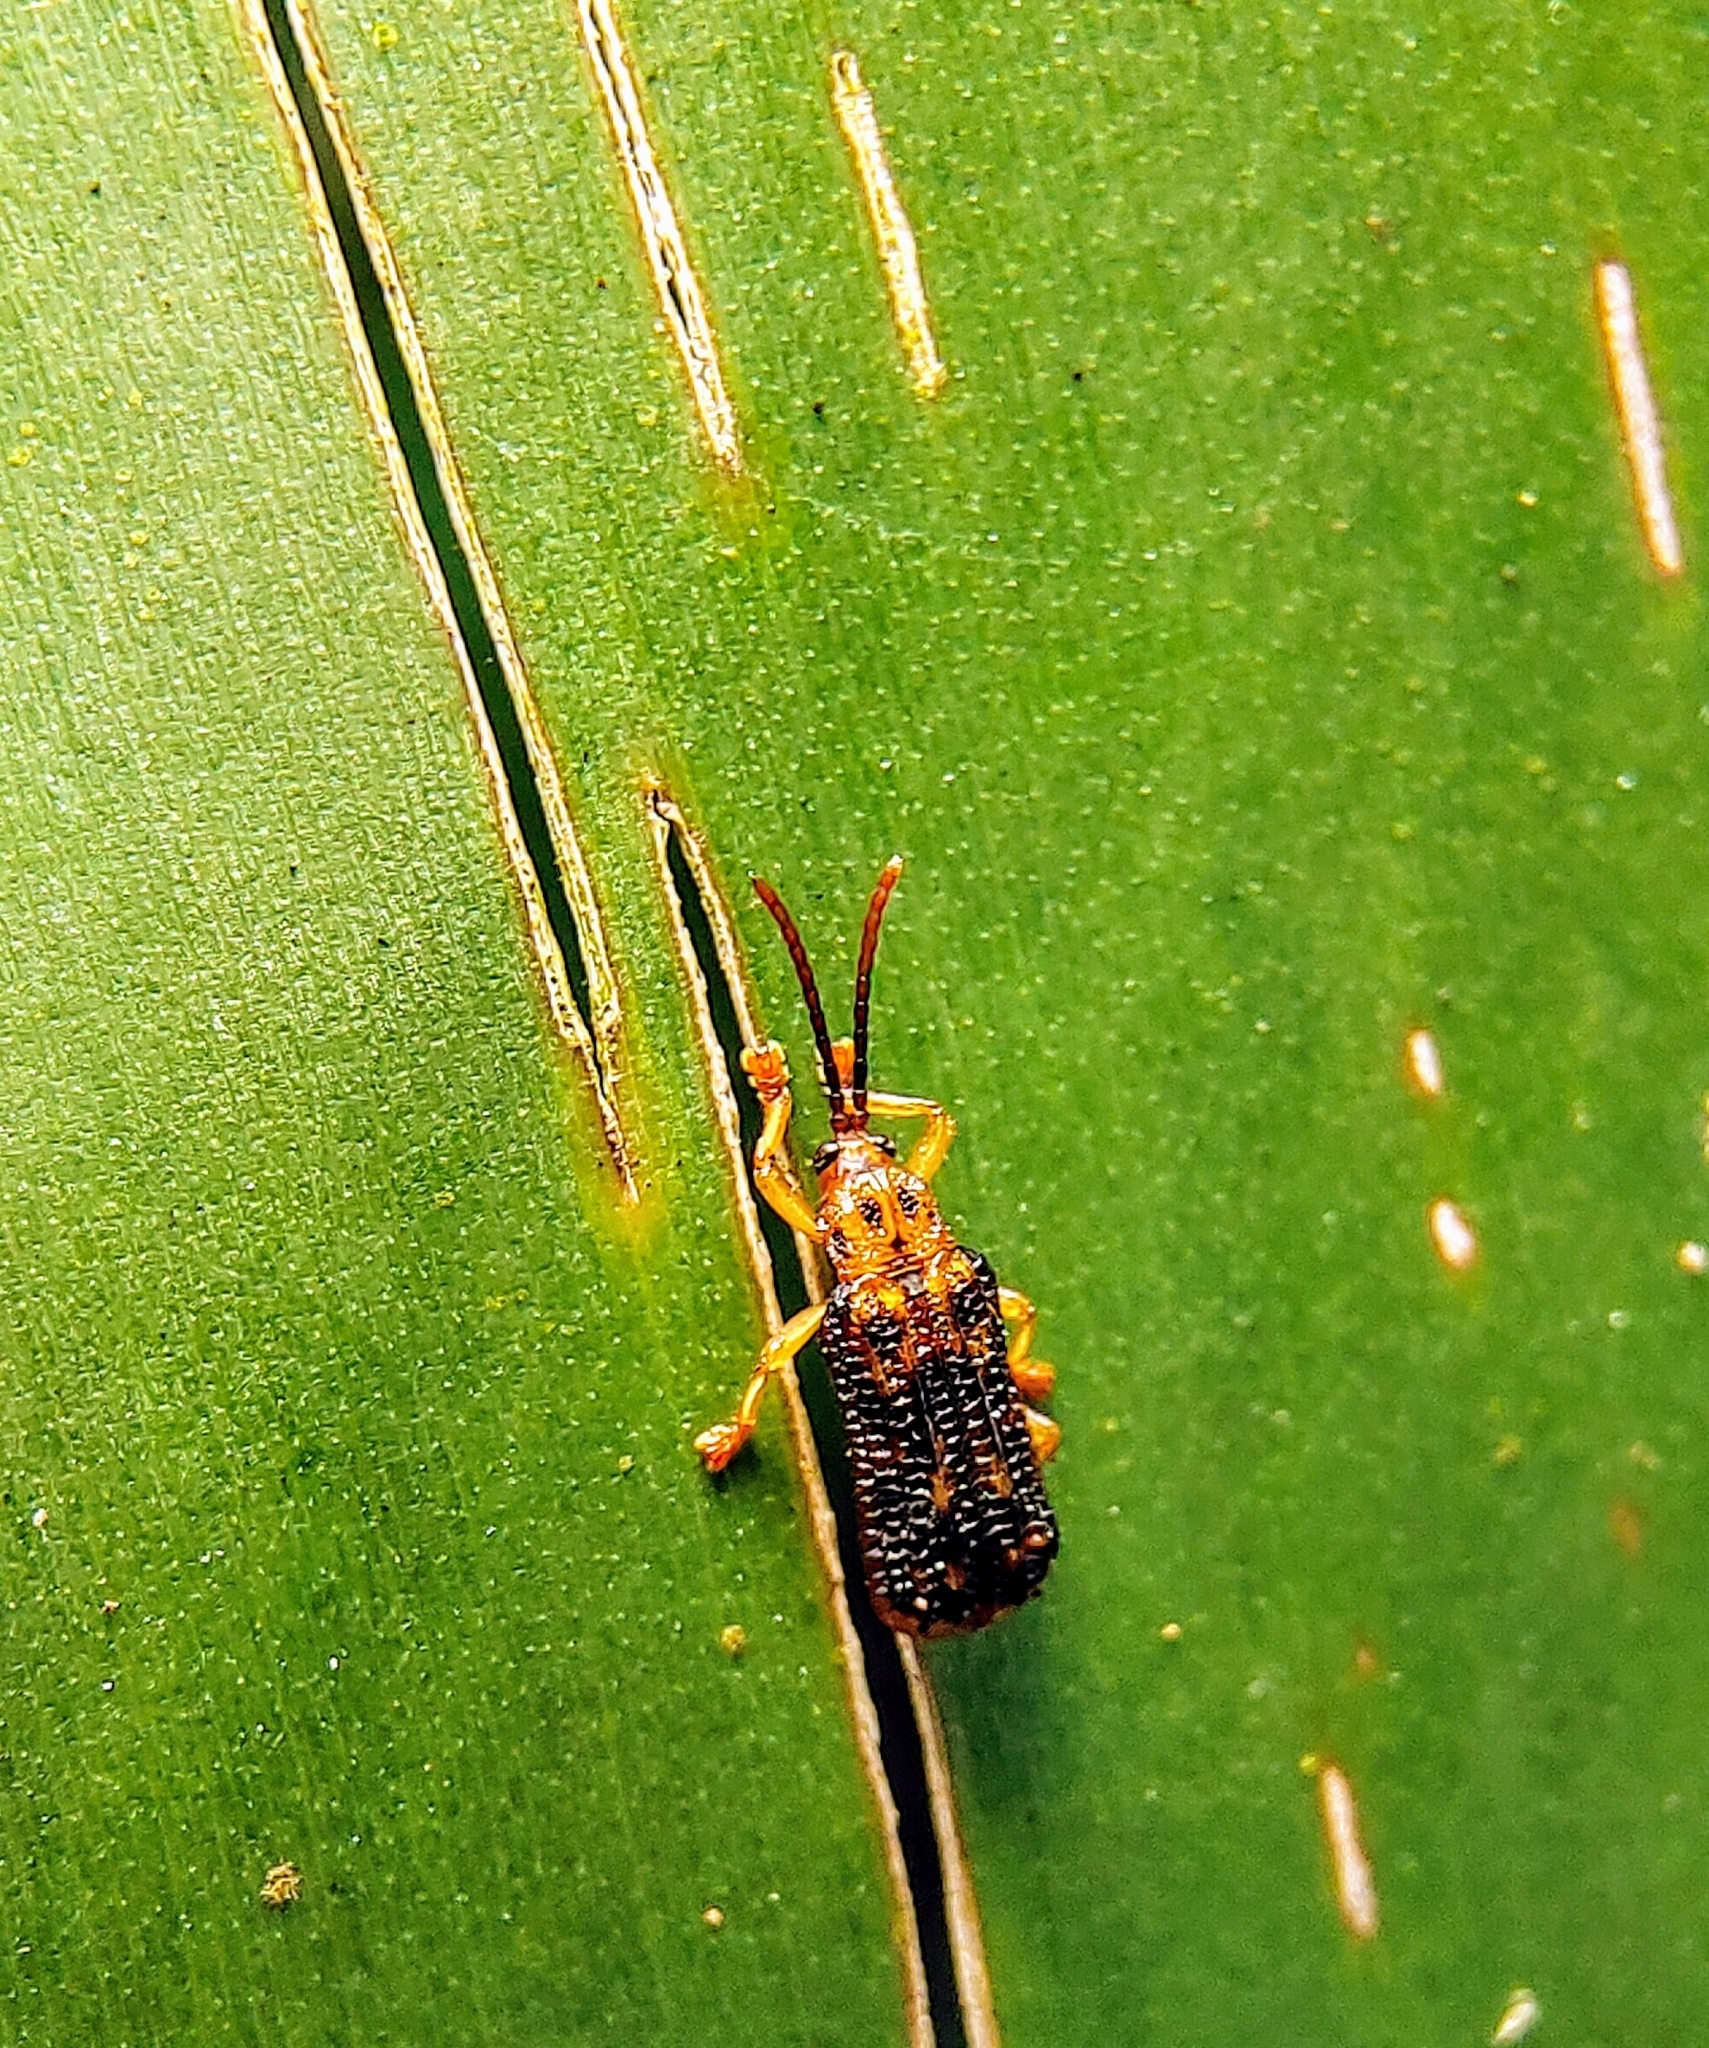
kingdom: Animalia
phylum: Arthropoda
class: Insecta
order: Coleoptera
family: Chrysomelidae
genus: Gonophora
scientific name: Gonophora pulchella
